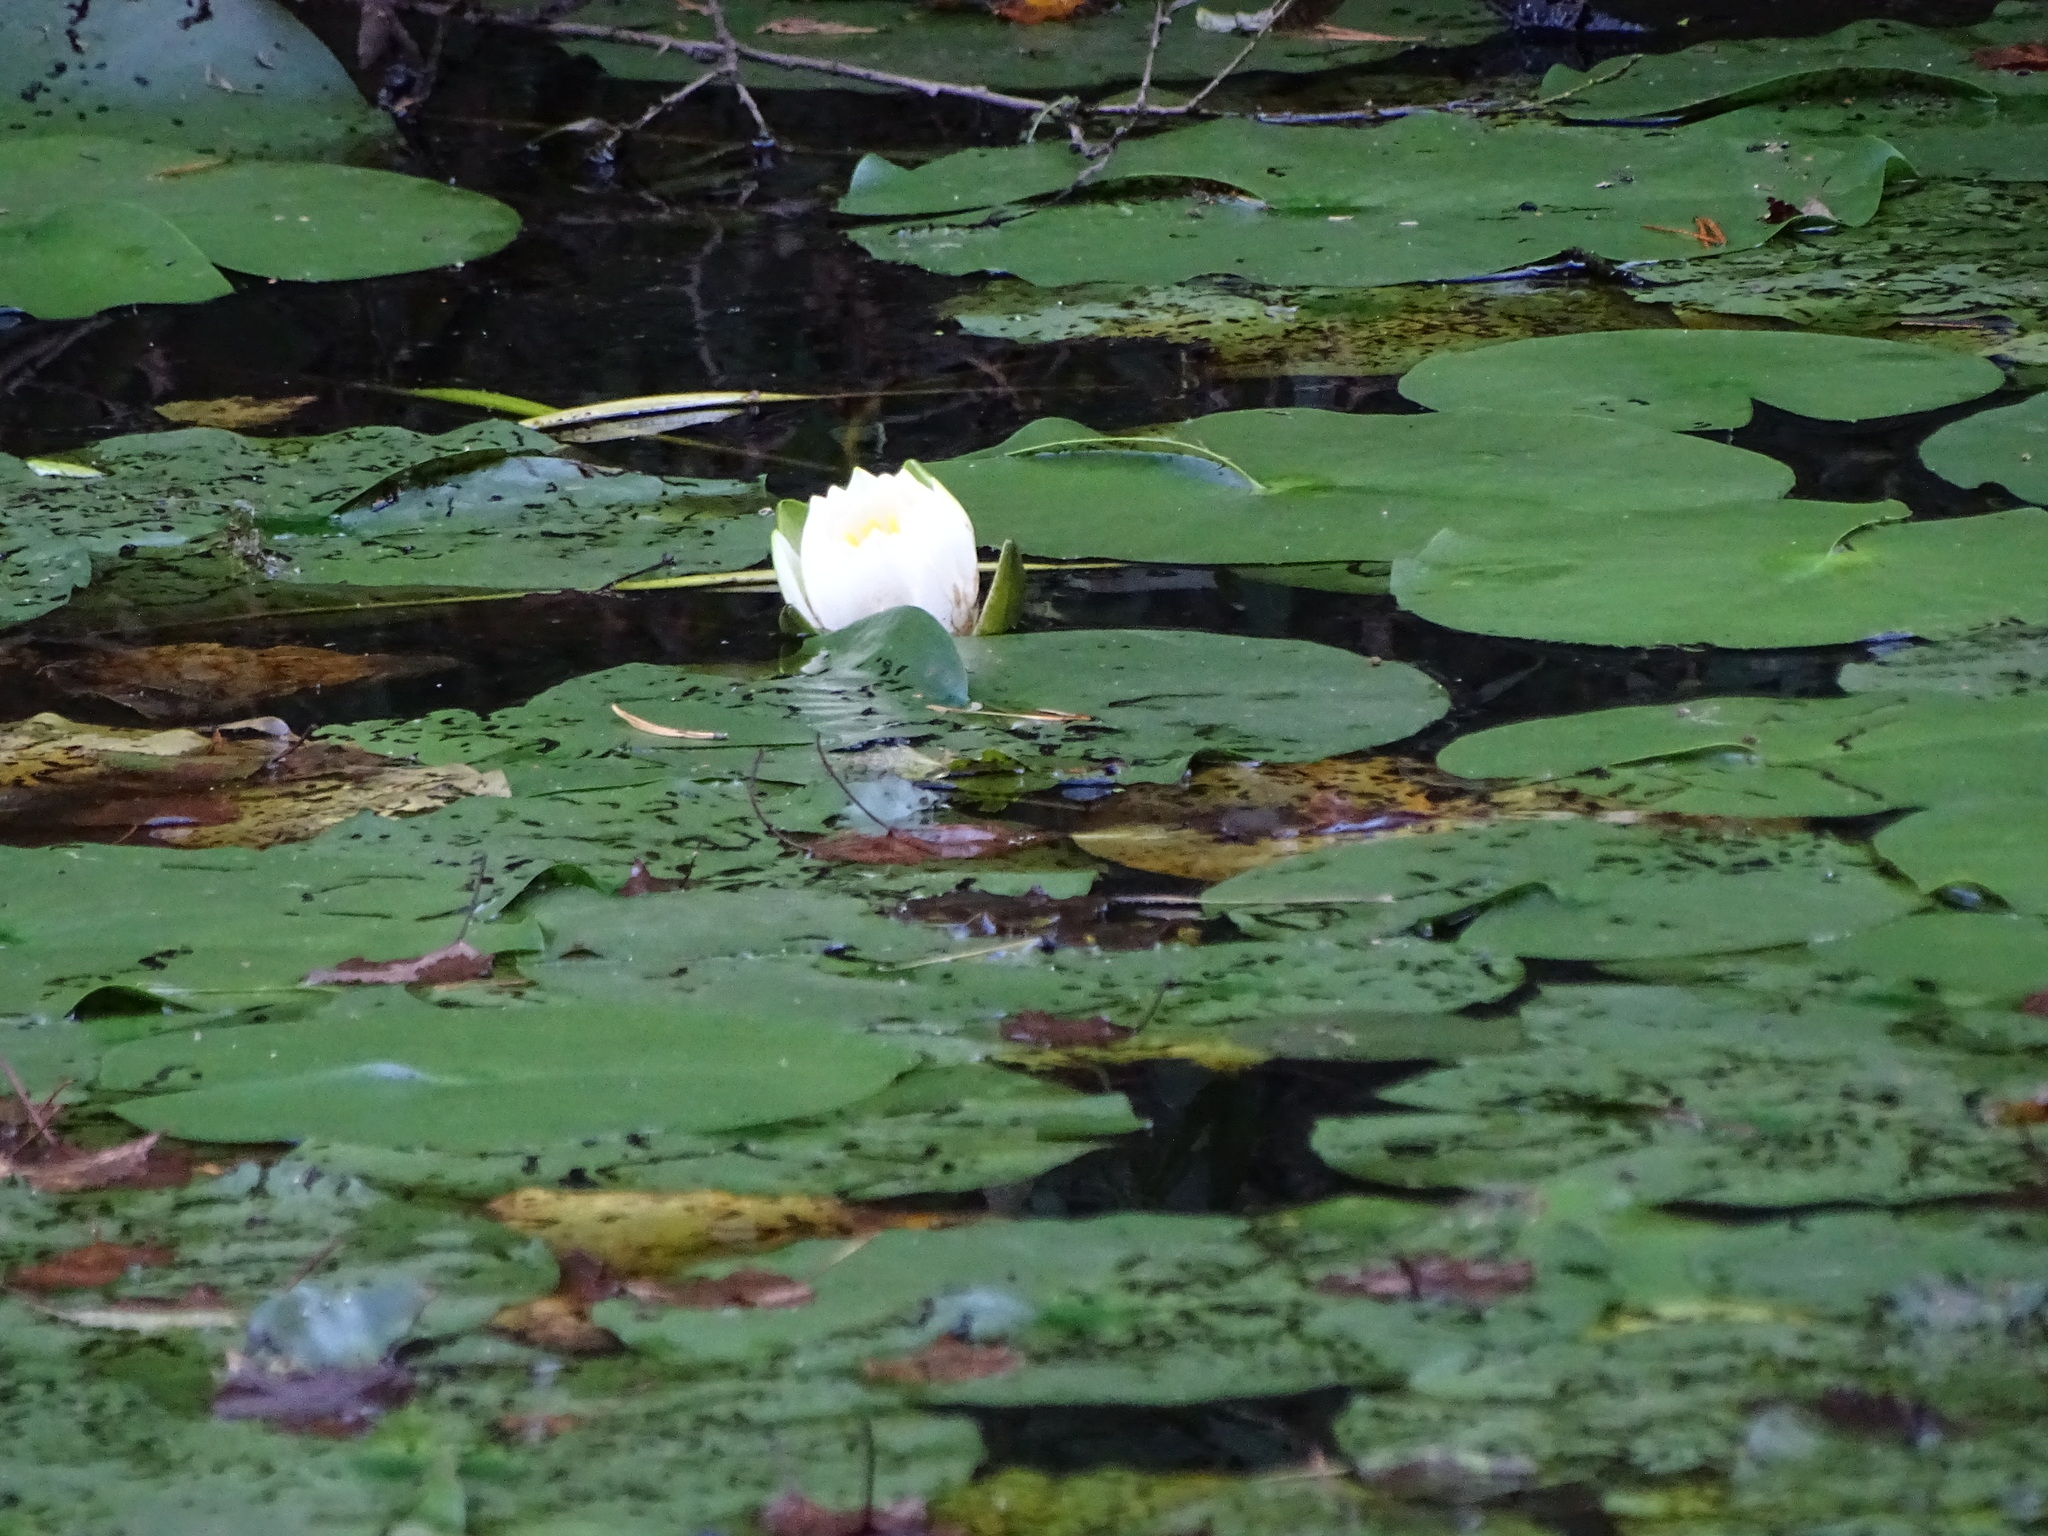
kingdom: Plantae
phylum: Tracheophyta
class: Magnoliopsida
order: Nymphaeales
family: Nymphaeaceae
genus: Nymphaea
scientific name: Nymphaea alba
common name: White water-lily
